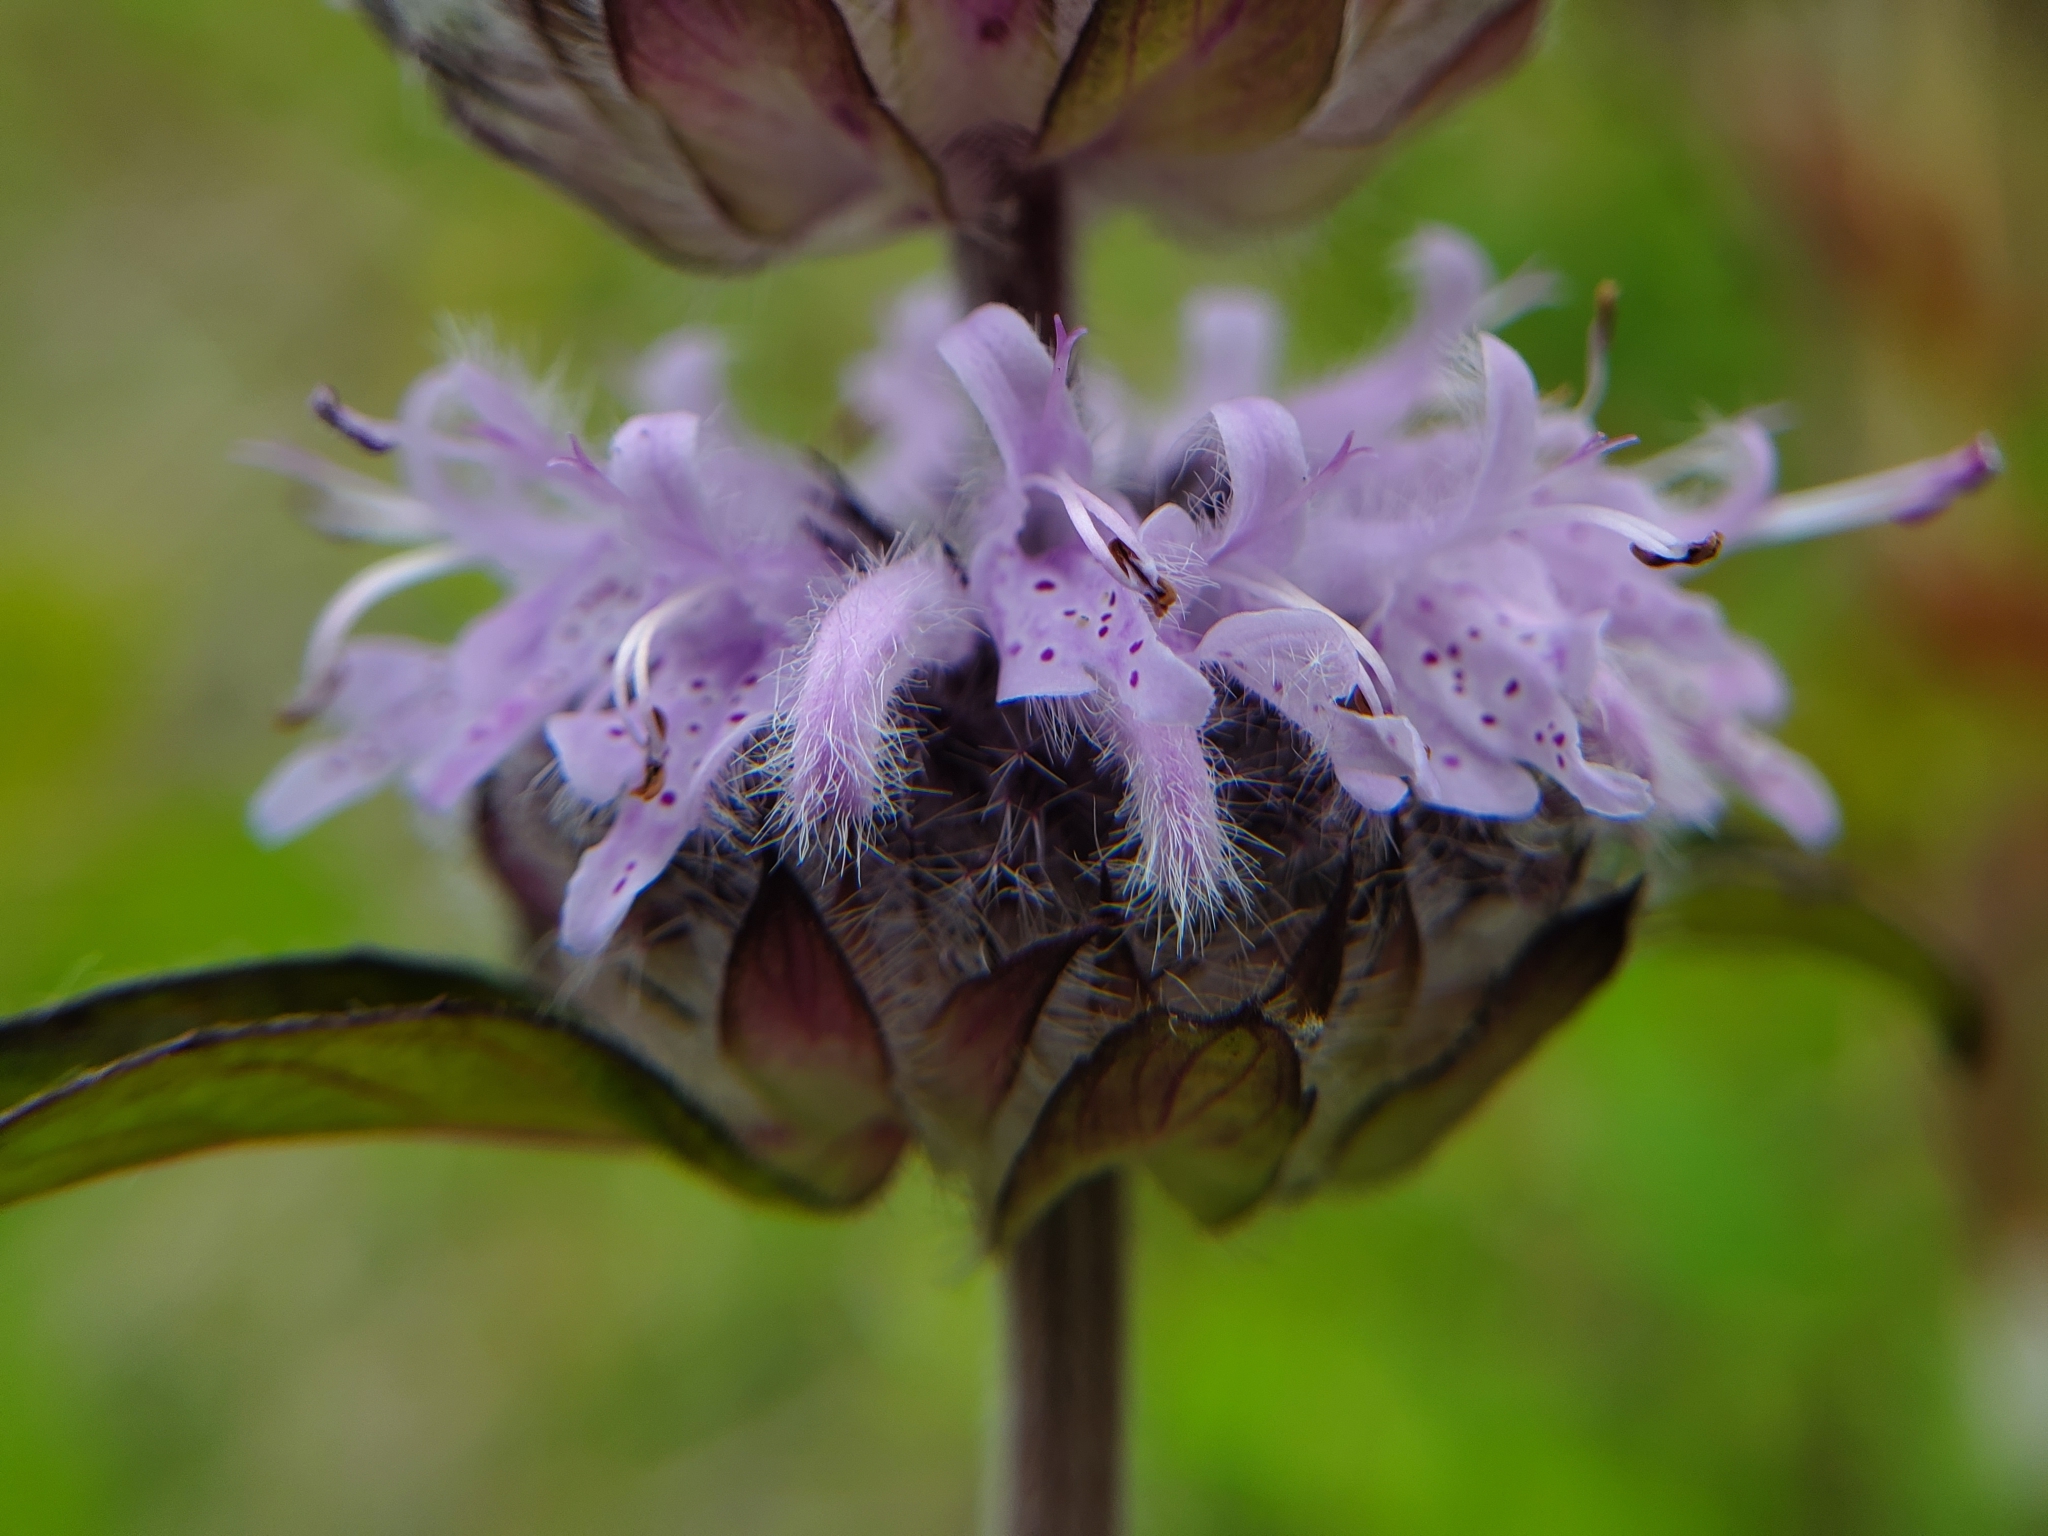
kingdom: Plantae
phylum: Tracheophyta
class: Magnoliopsida
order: Lamiales
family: Lamiaceae
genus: Blephilia
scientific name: Blephilia ciliata
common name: Downy blephilia
